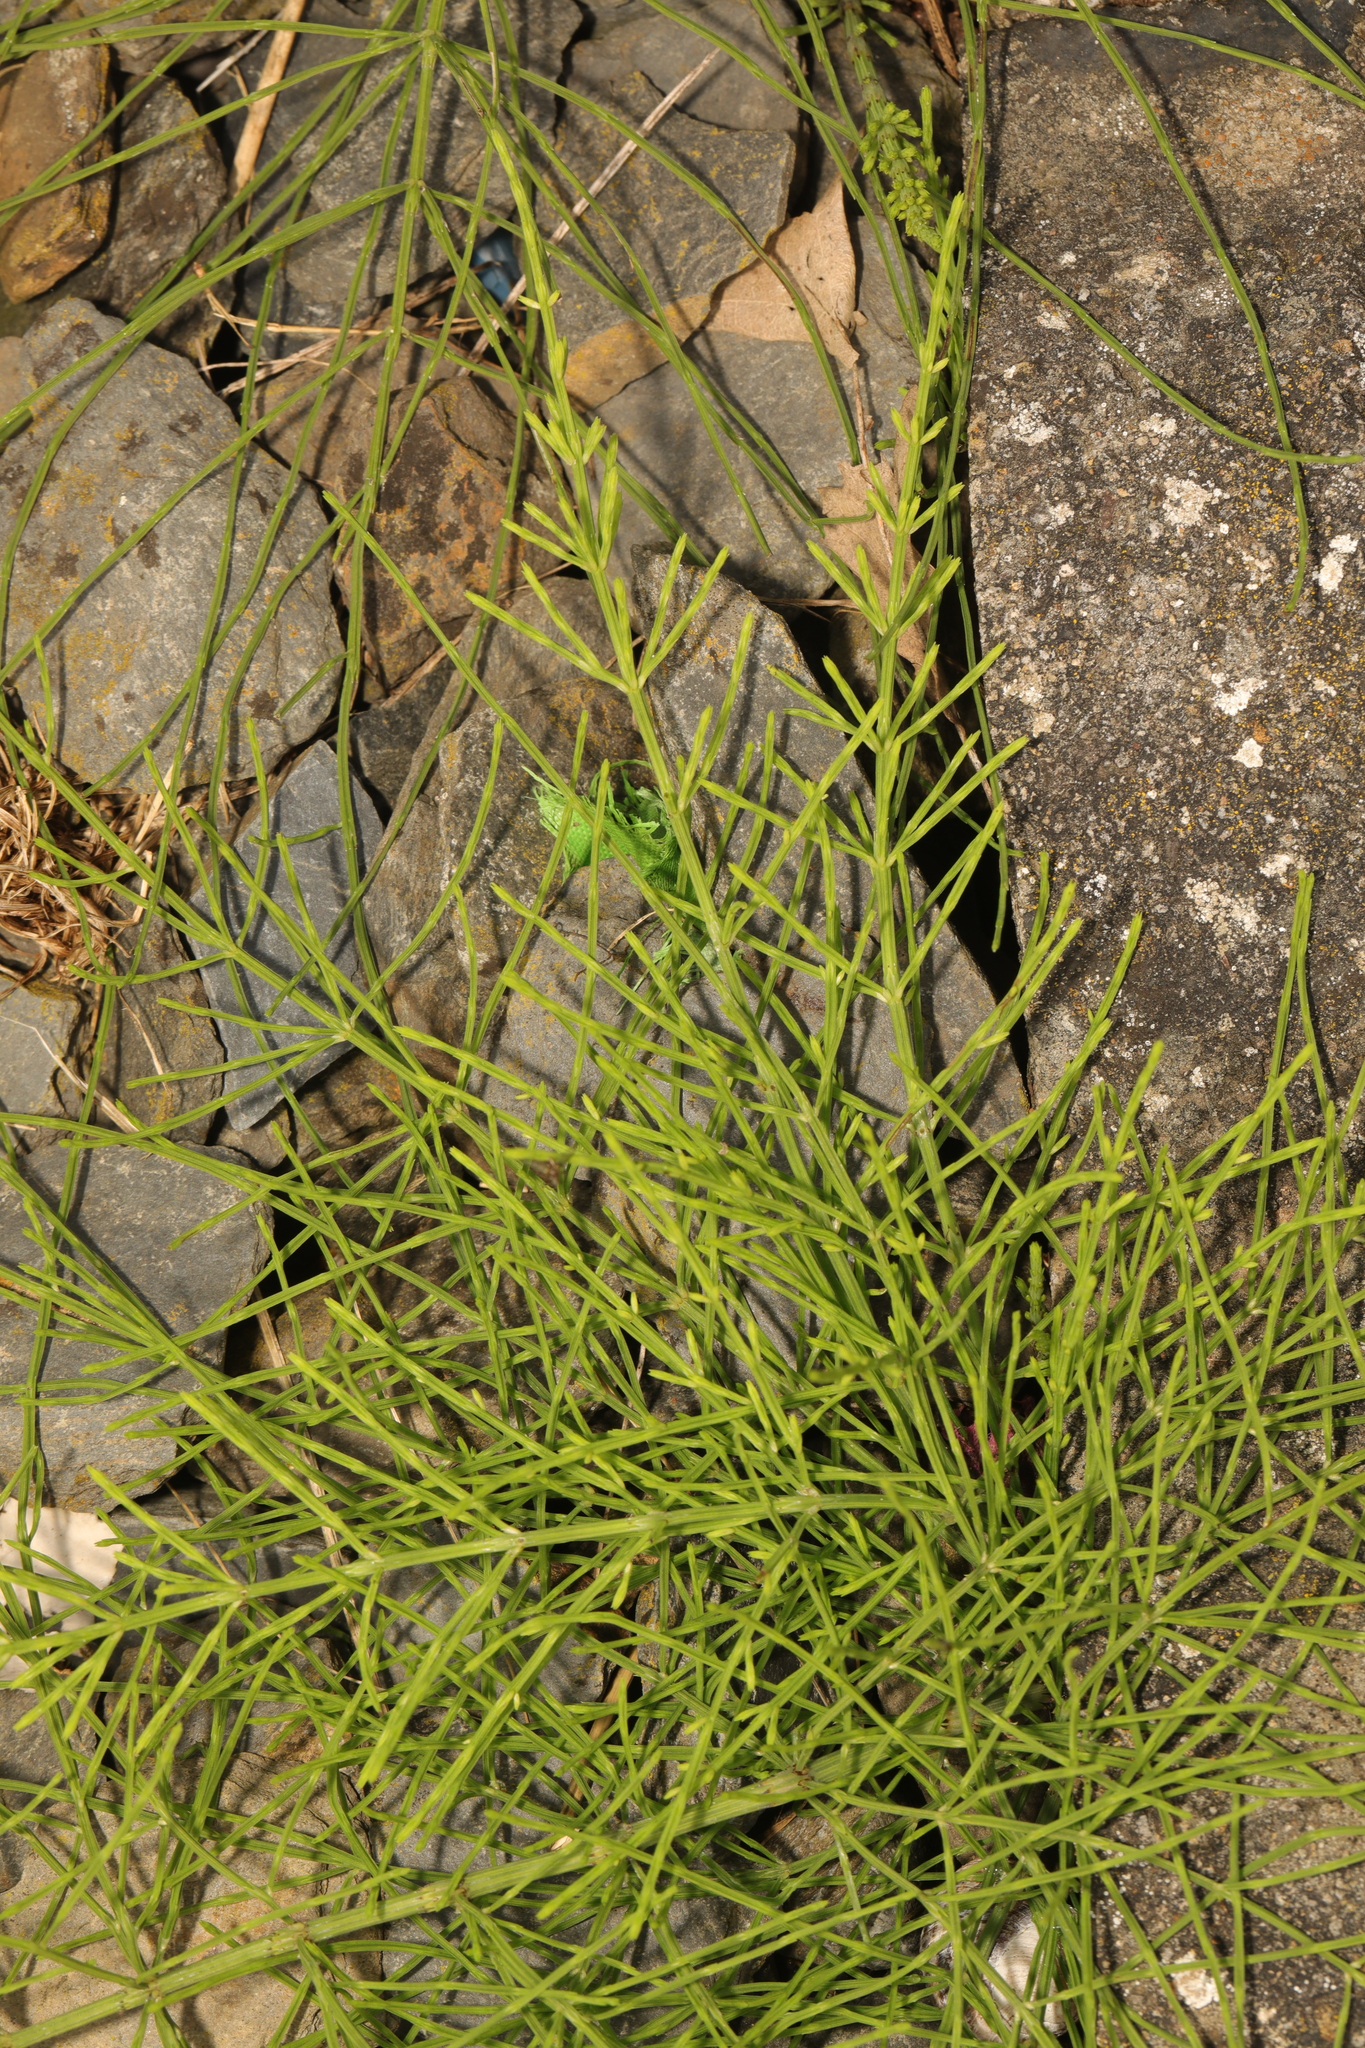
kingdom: Plantae
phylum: Tracheophyta
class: Polypodiopsida
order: Equisetales
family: Equisetaceae
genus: Equisetum
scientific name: Equisetum arvense
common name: Field horsetail
